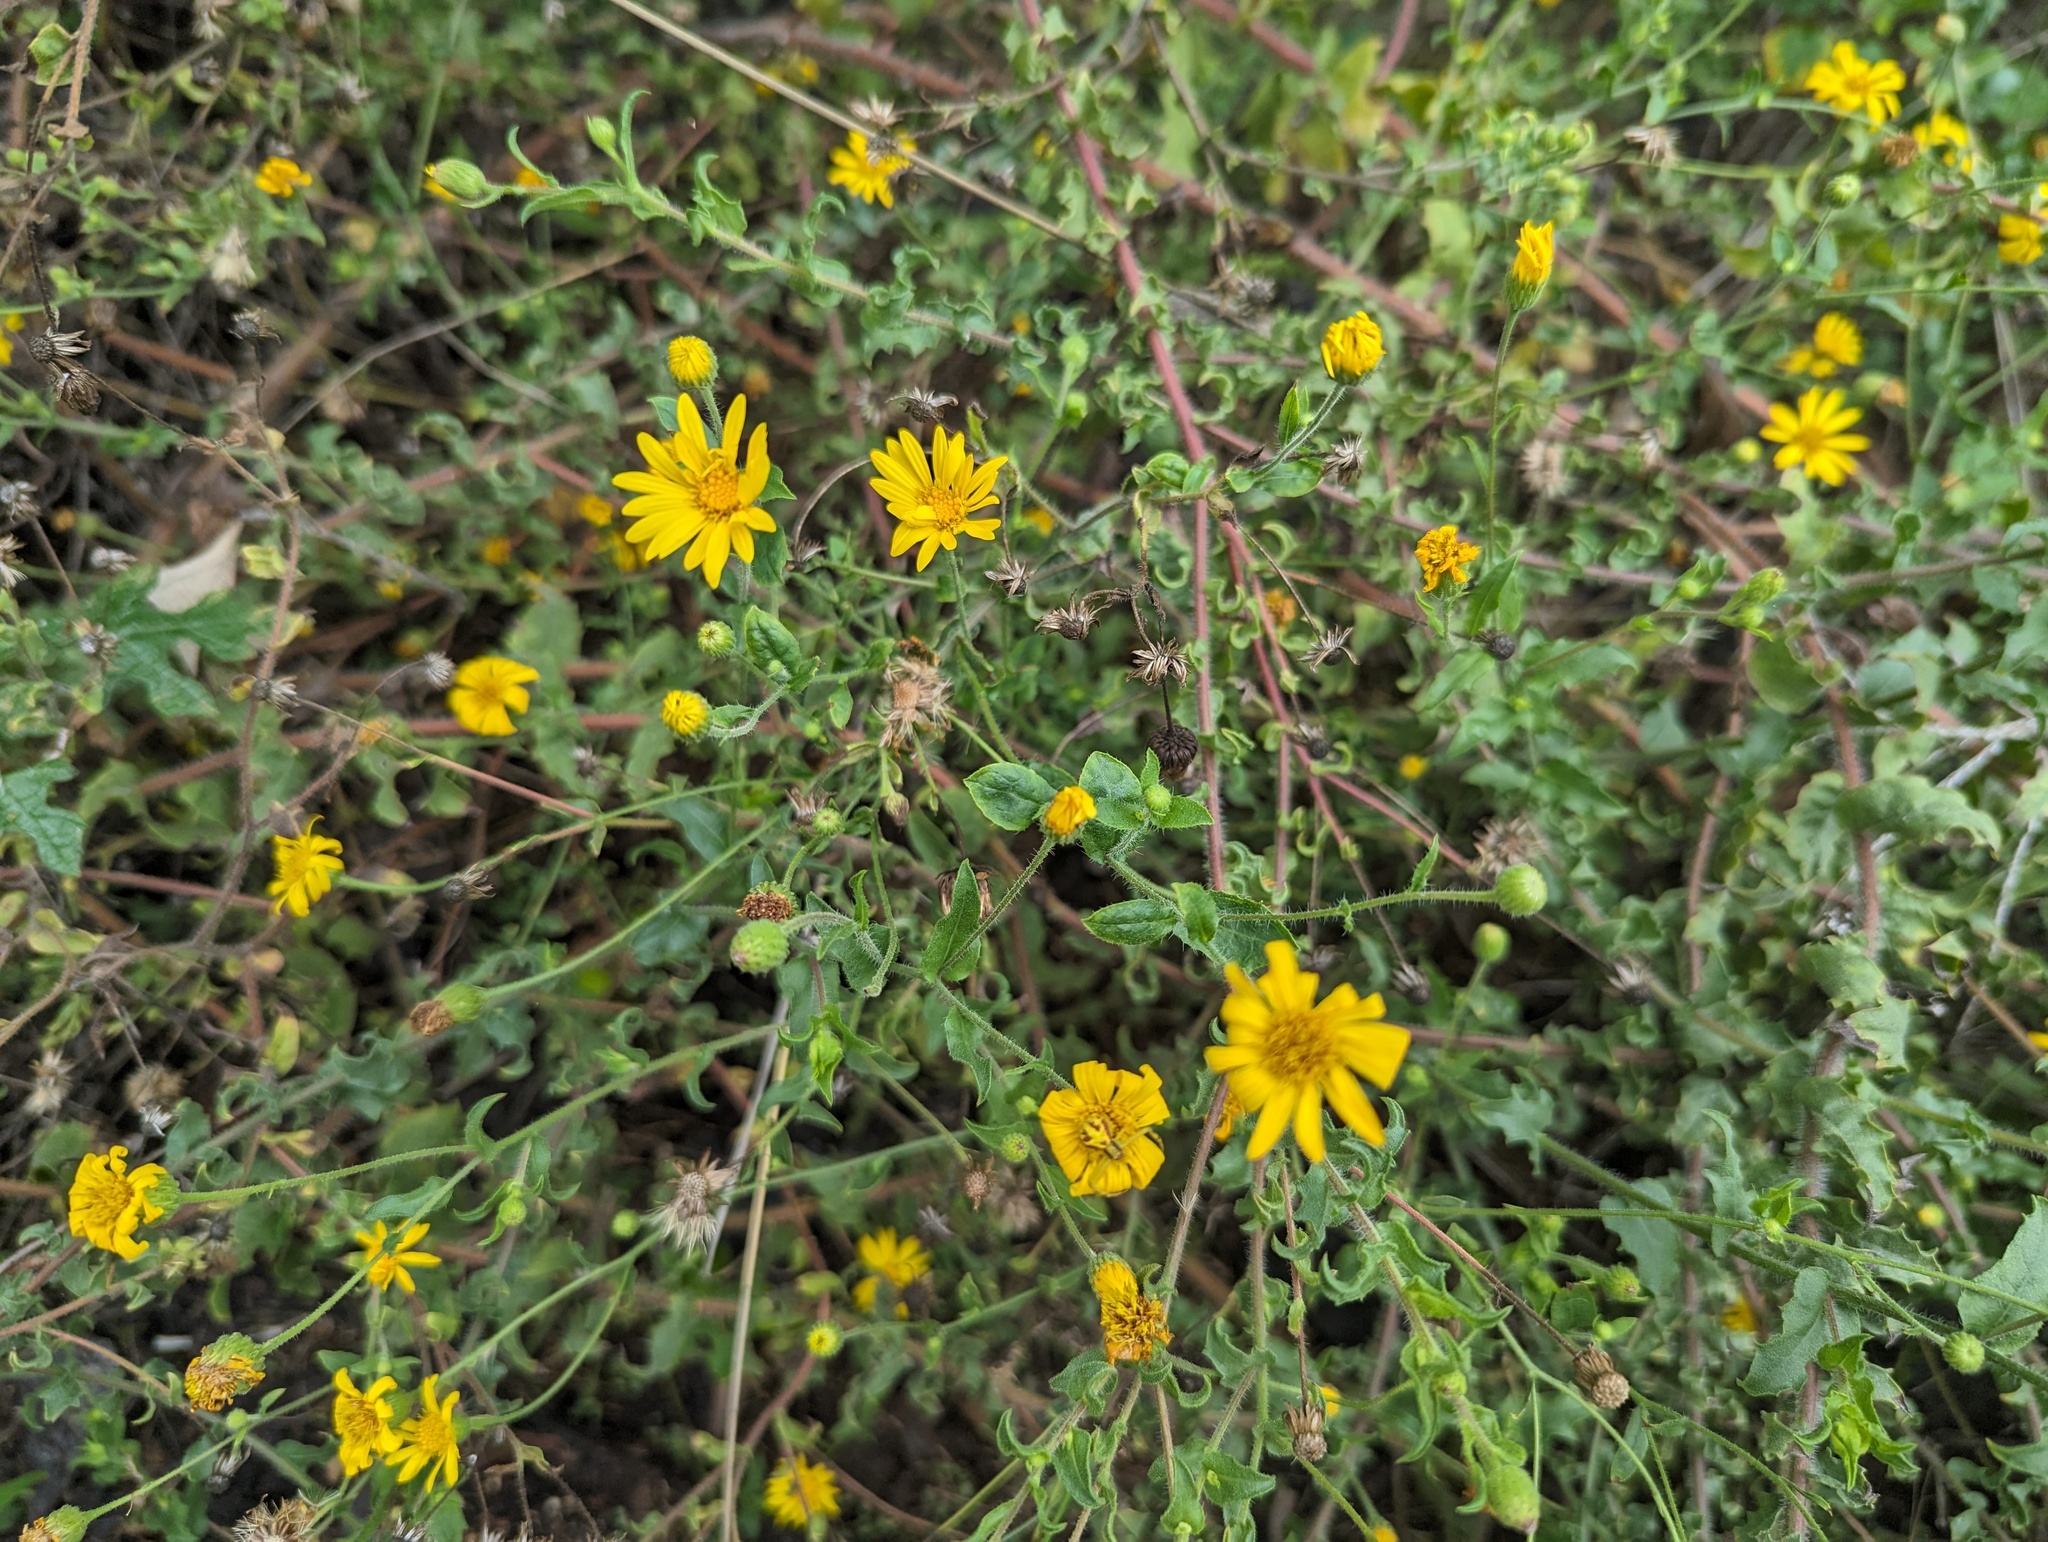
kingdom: Plantae
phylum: Tracheophyta
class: Magnoliopsida
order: Asterales
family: Asteraceae
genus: Heterotheca
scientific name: Heterotheca subaxillaris
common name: Camphorweed
